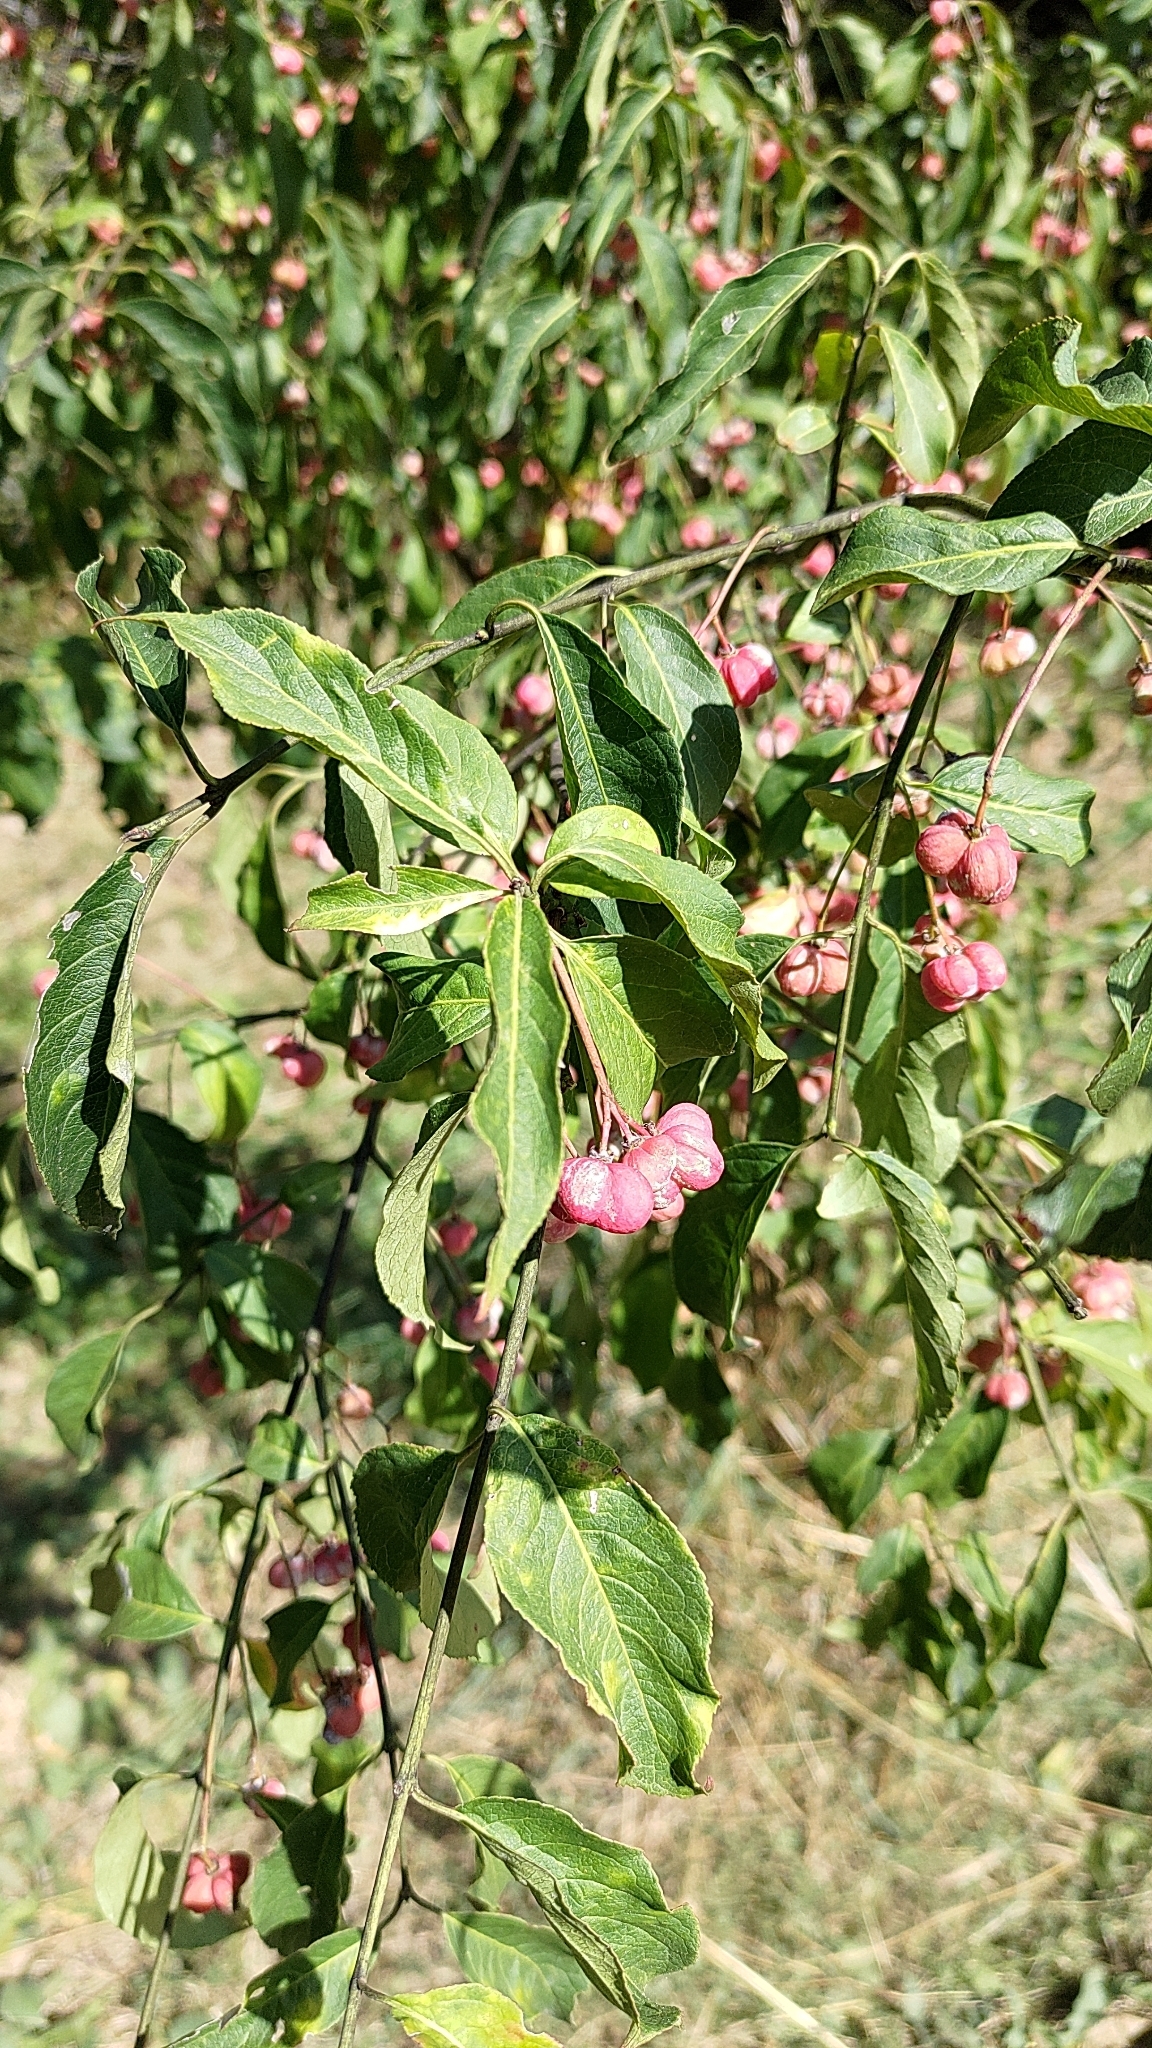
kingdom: Plantae
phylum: Tracheophyta
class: Magnoliopsida
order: Celastrales
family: Celastraceae
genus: Euonymus
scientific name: Euonymus europaeus
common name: Spindle
